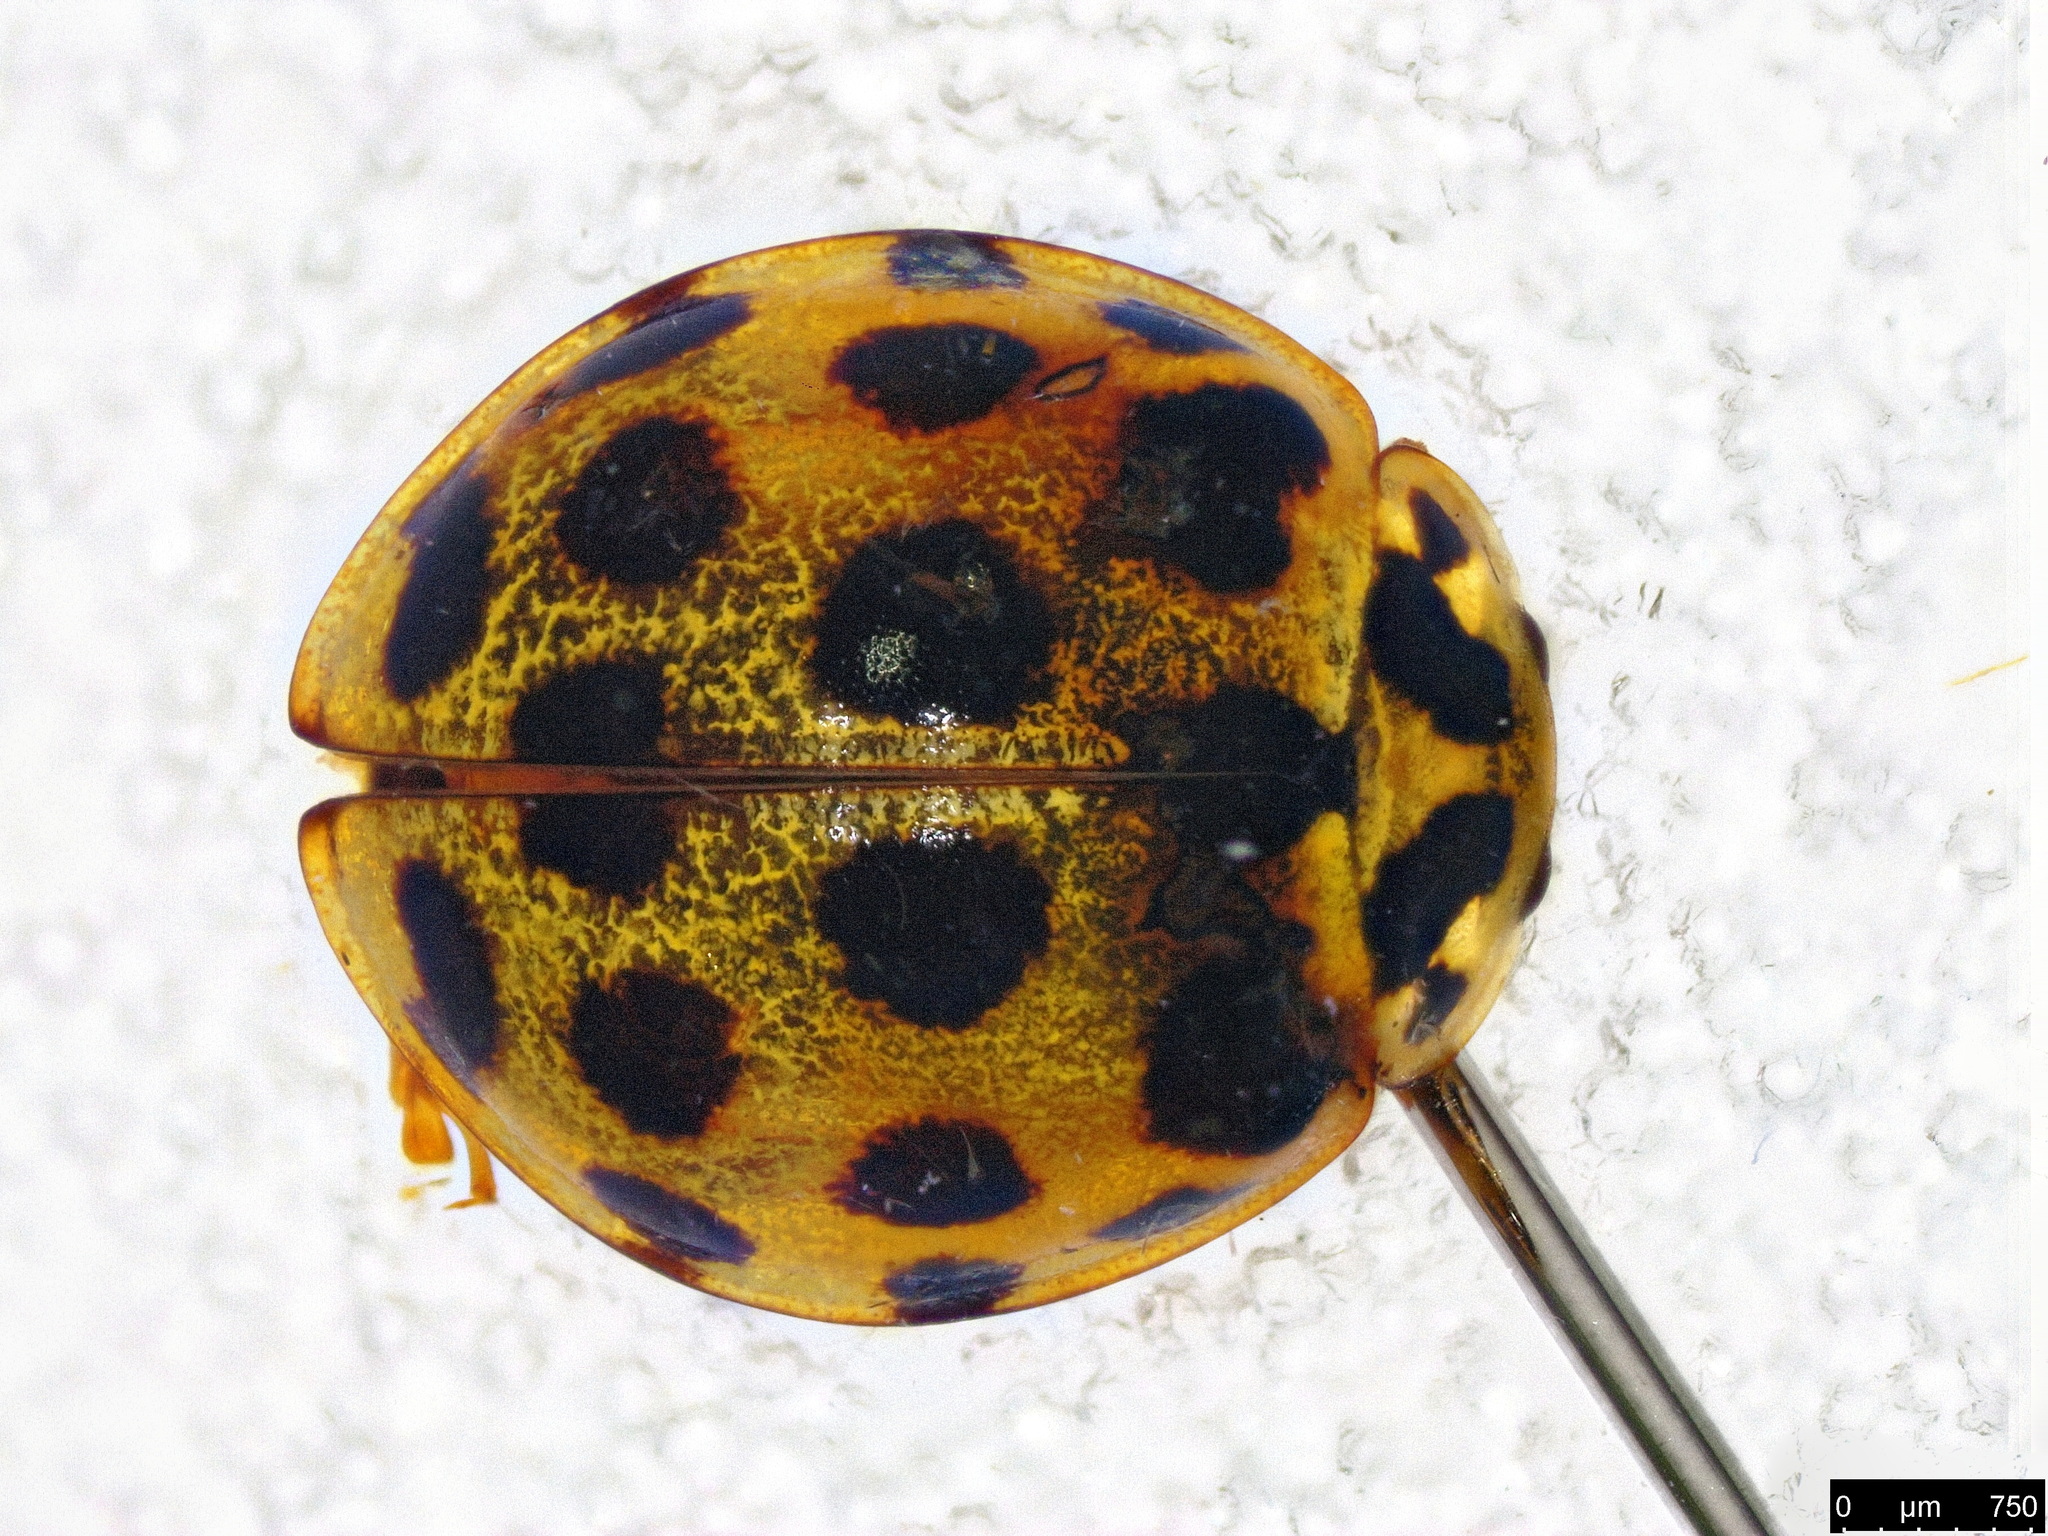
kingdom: Animalia
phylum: Arthropoda
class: Insecta
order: Coleoptera
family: Coccinellidae
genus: Harmonia
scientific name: Harmonia conformis
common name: Common spotted ladybird beetle
